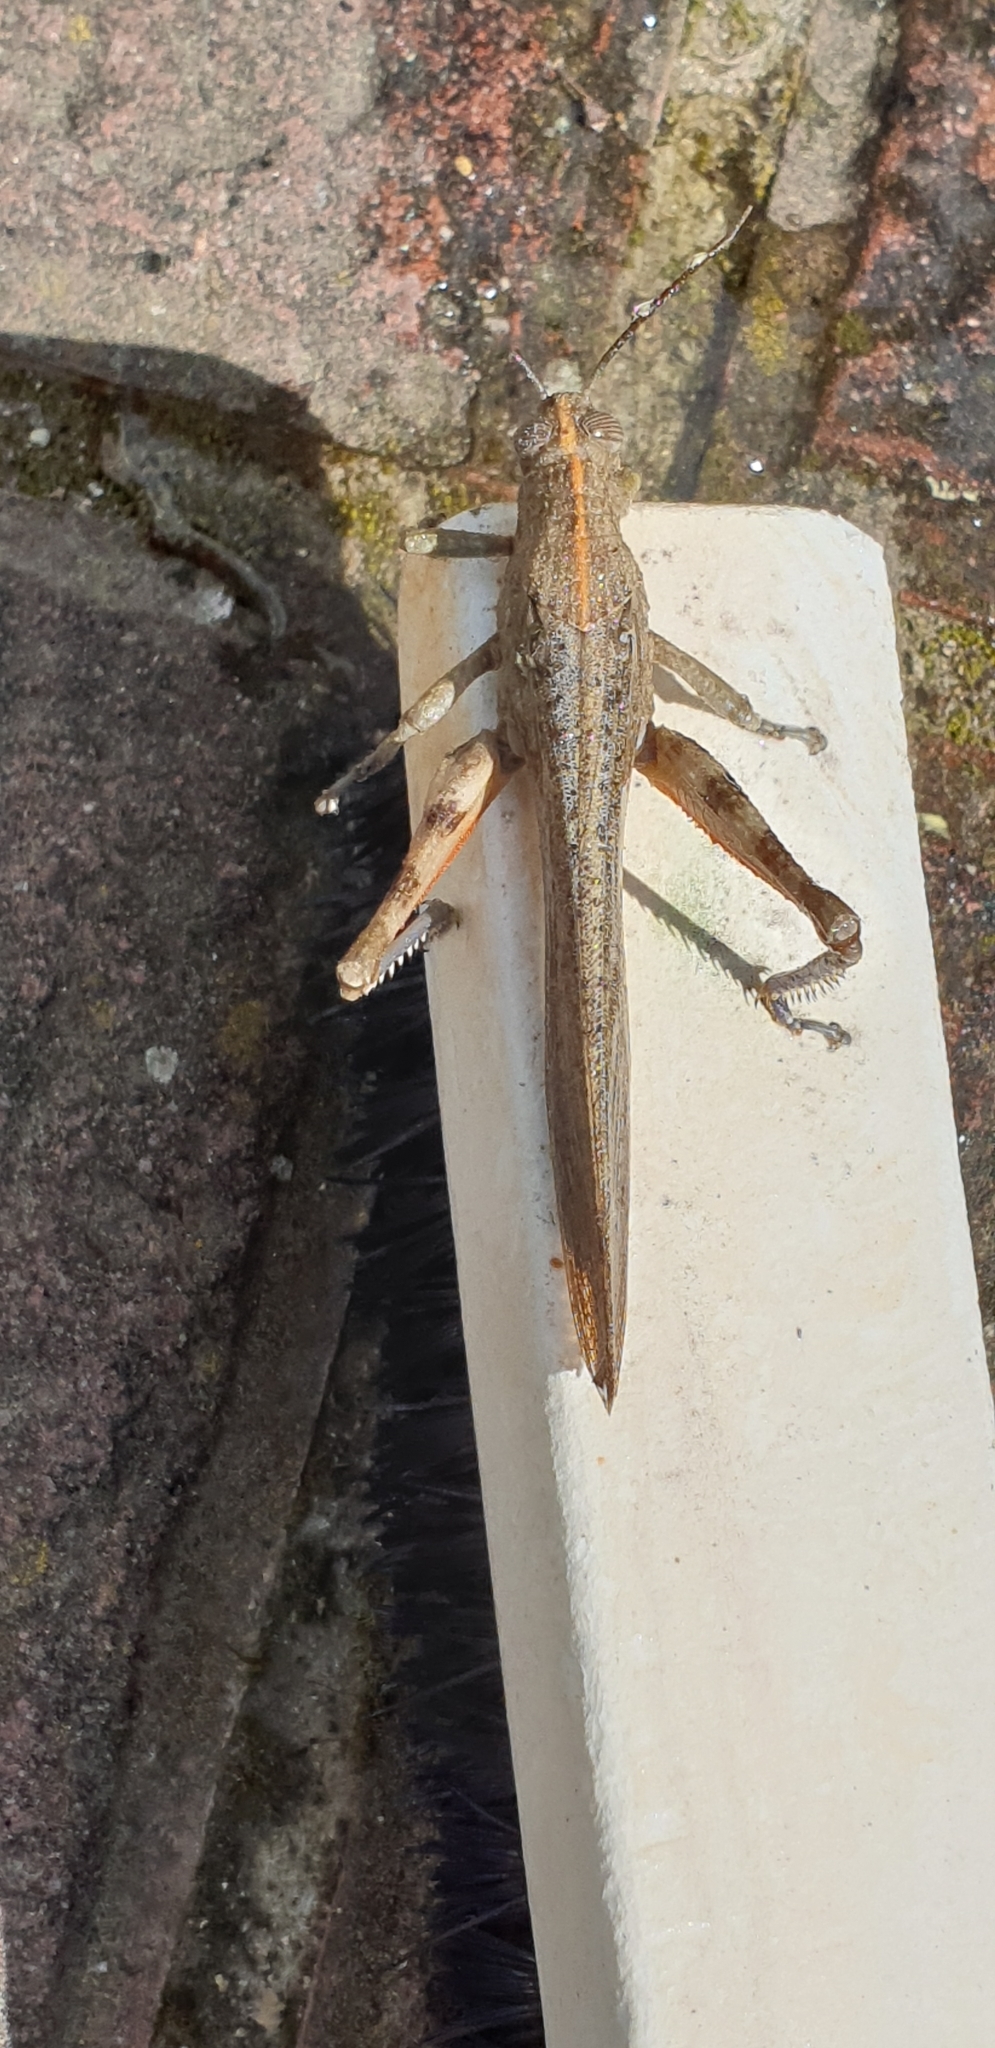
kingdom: Animalia
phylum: Arthropoda
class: Insecta
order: Orthoptera
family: Acrididae
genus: Anacridium
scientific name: Anacridium aegyptium
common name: Egyptian grasshopper
